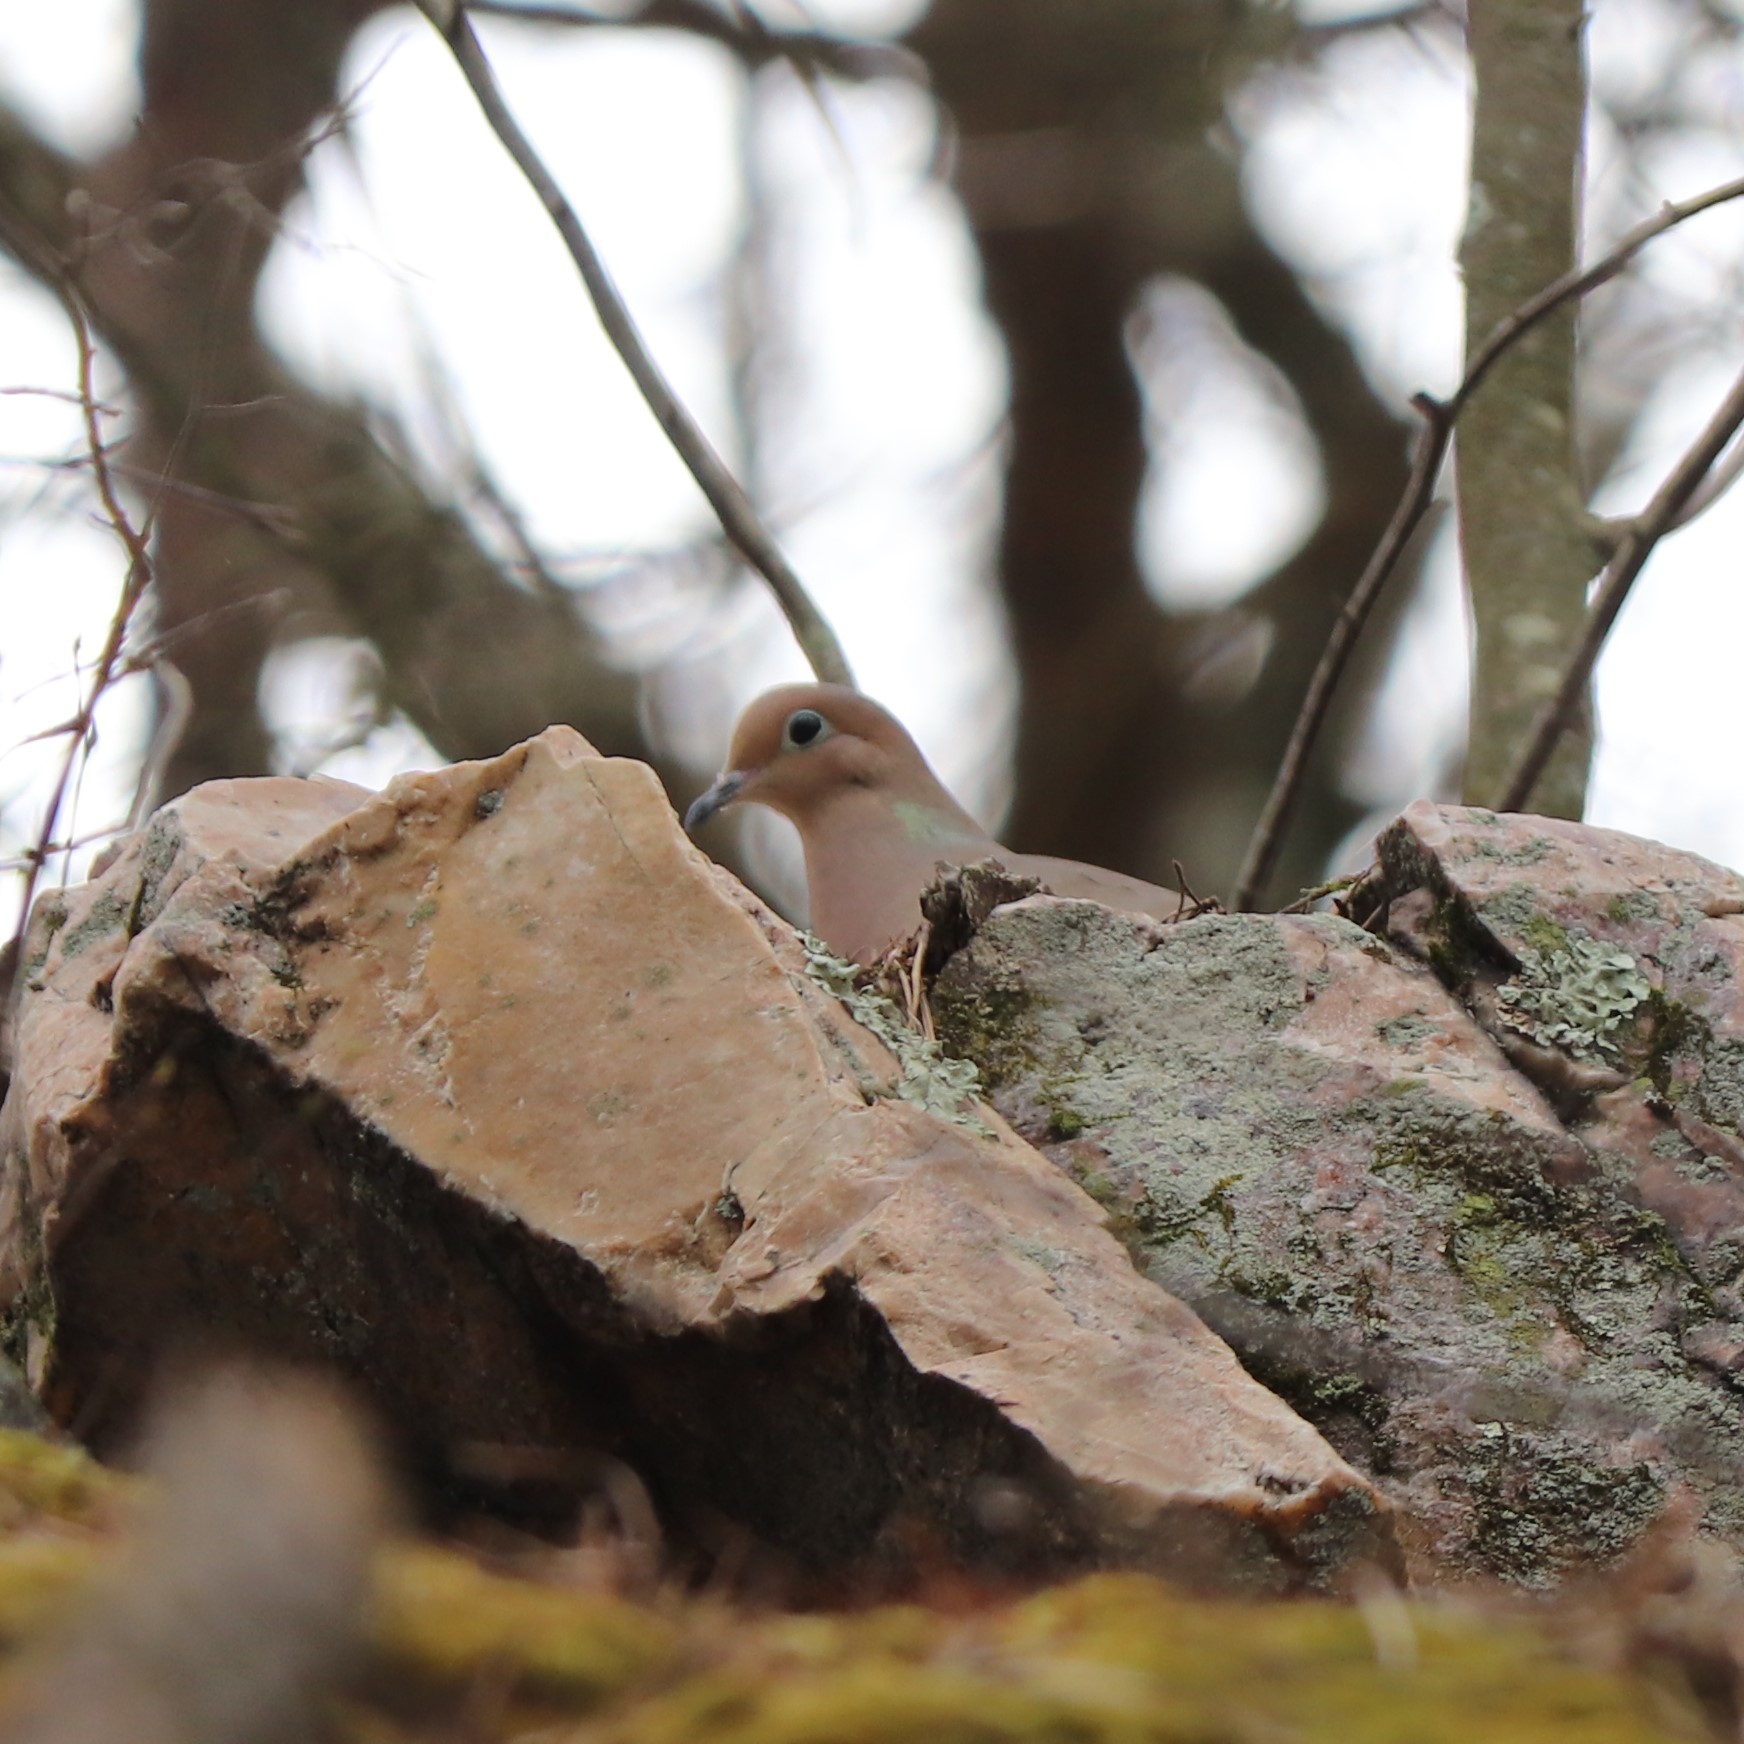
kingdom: Animalia
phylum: Chordata
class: Aves
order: Columbiformes
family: Columbidae
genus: Zenaida
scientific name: Zenaida macroura
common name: Mourning dove
